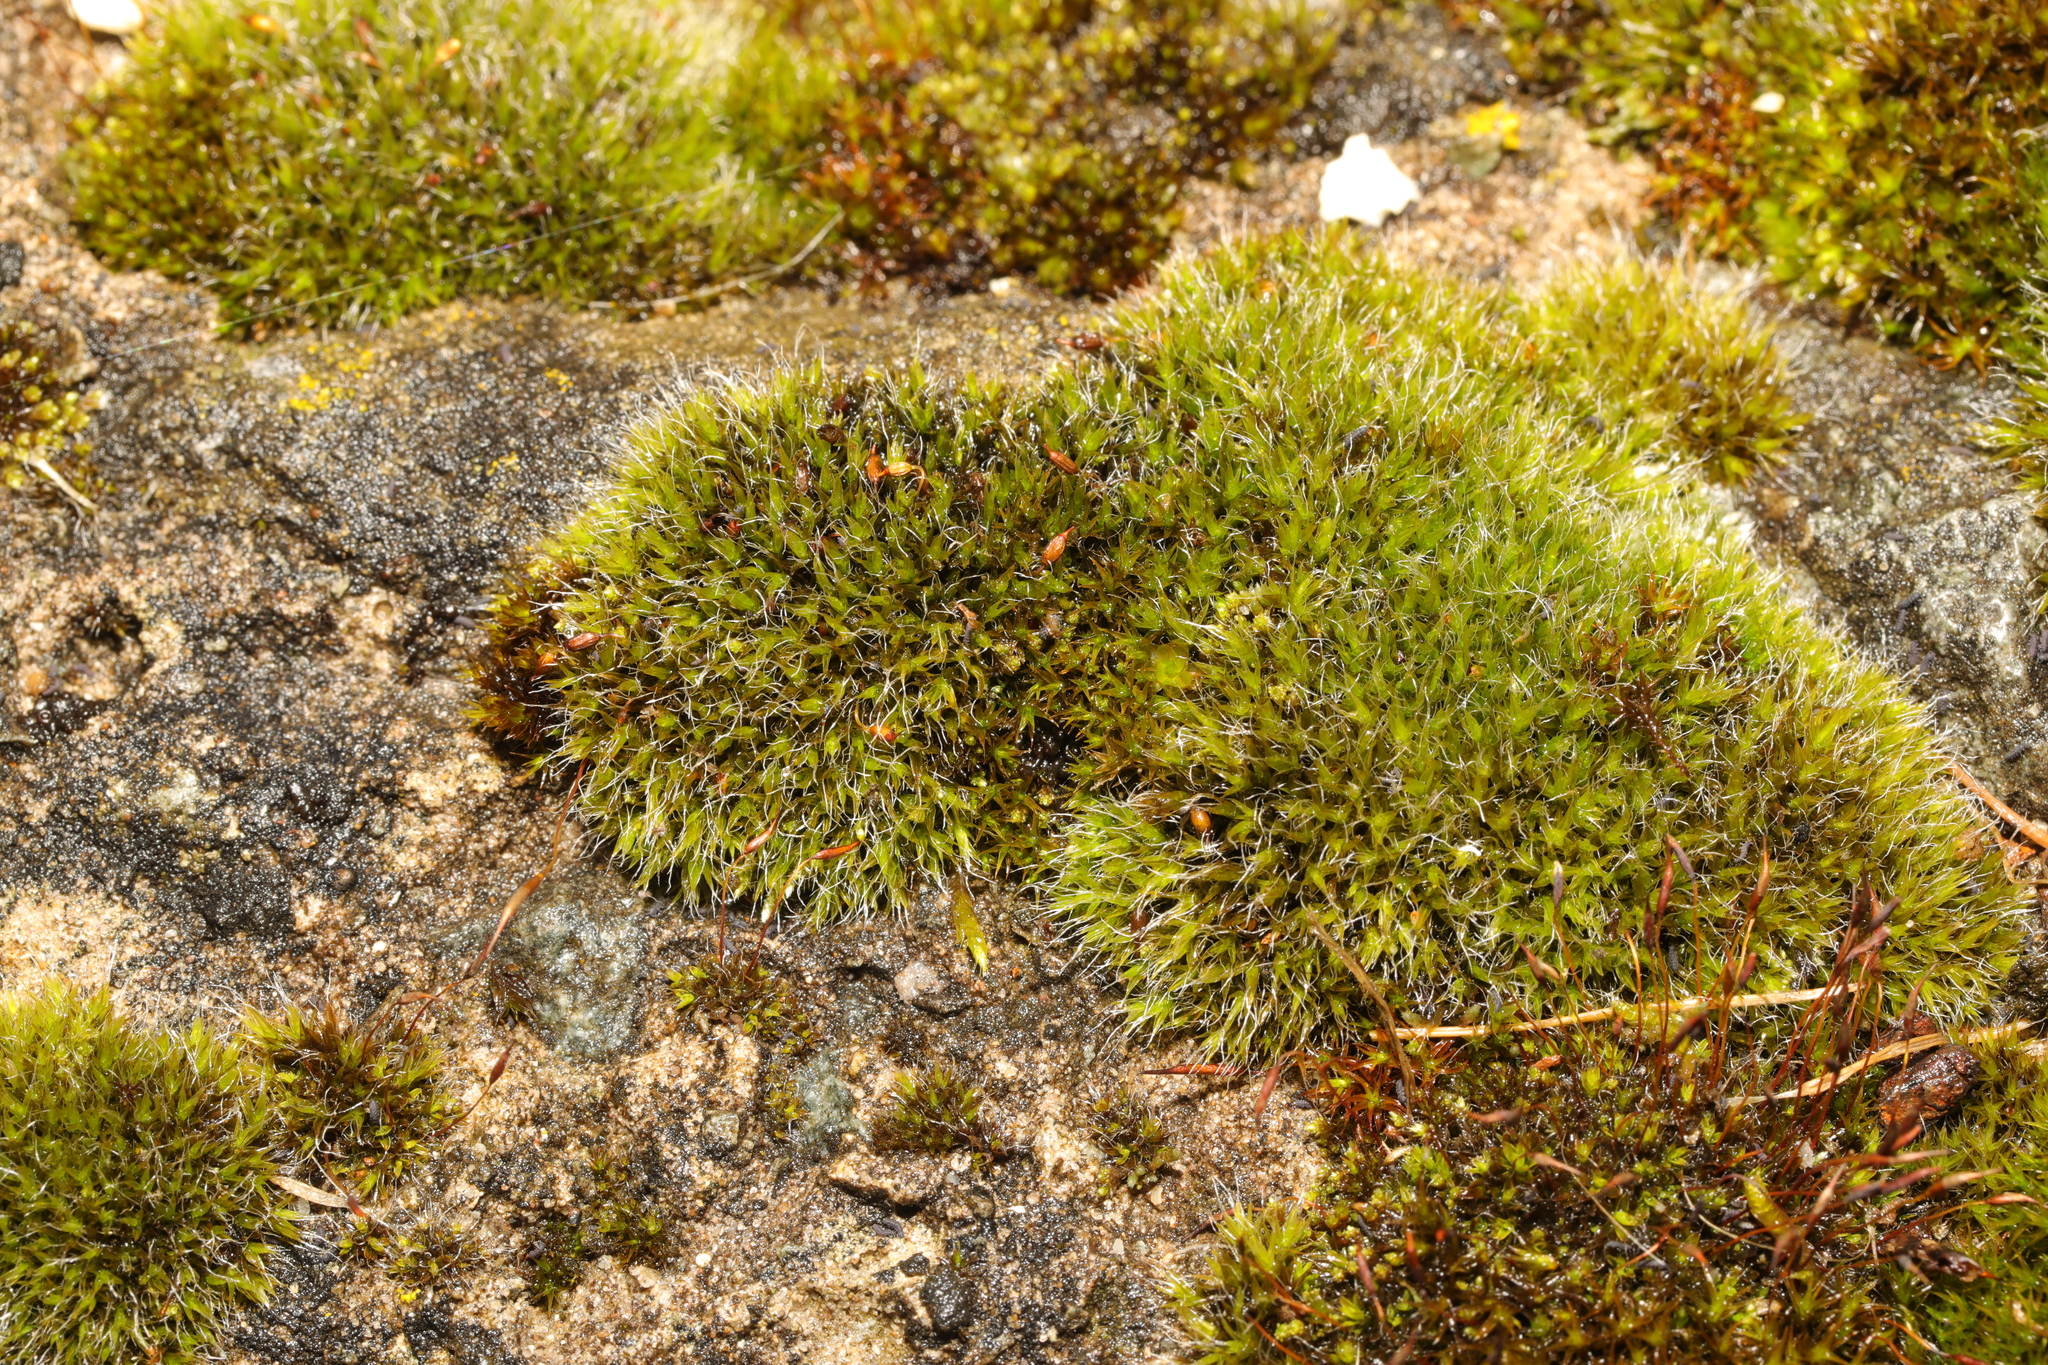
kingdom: Plantae
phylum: Bryophyta
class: Bryopsida
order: Grimmiales
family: Grimmiaceae
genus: Grimmia
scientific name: Grimmia pulvinata
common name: Grey-cushioned grimmia
